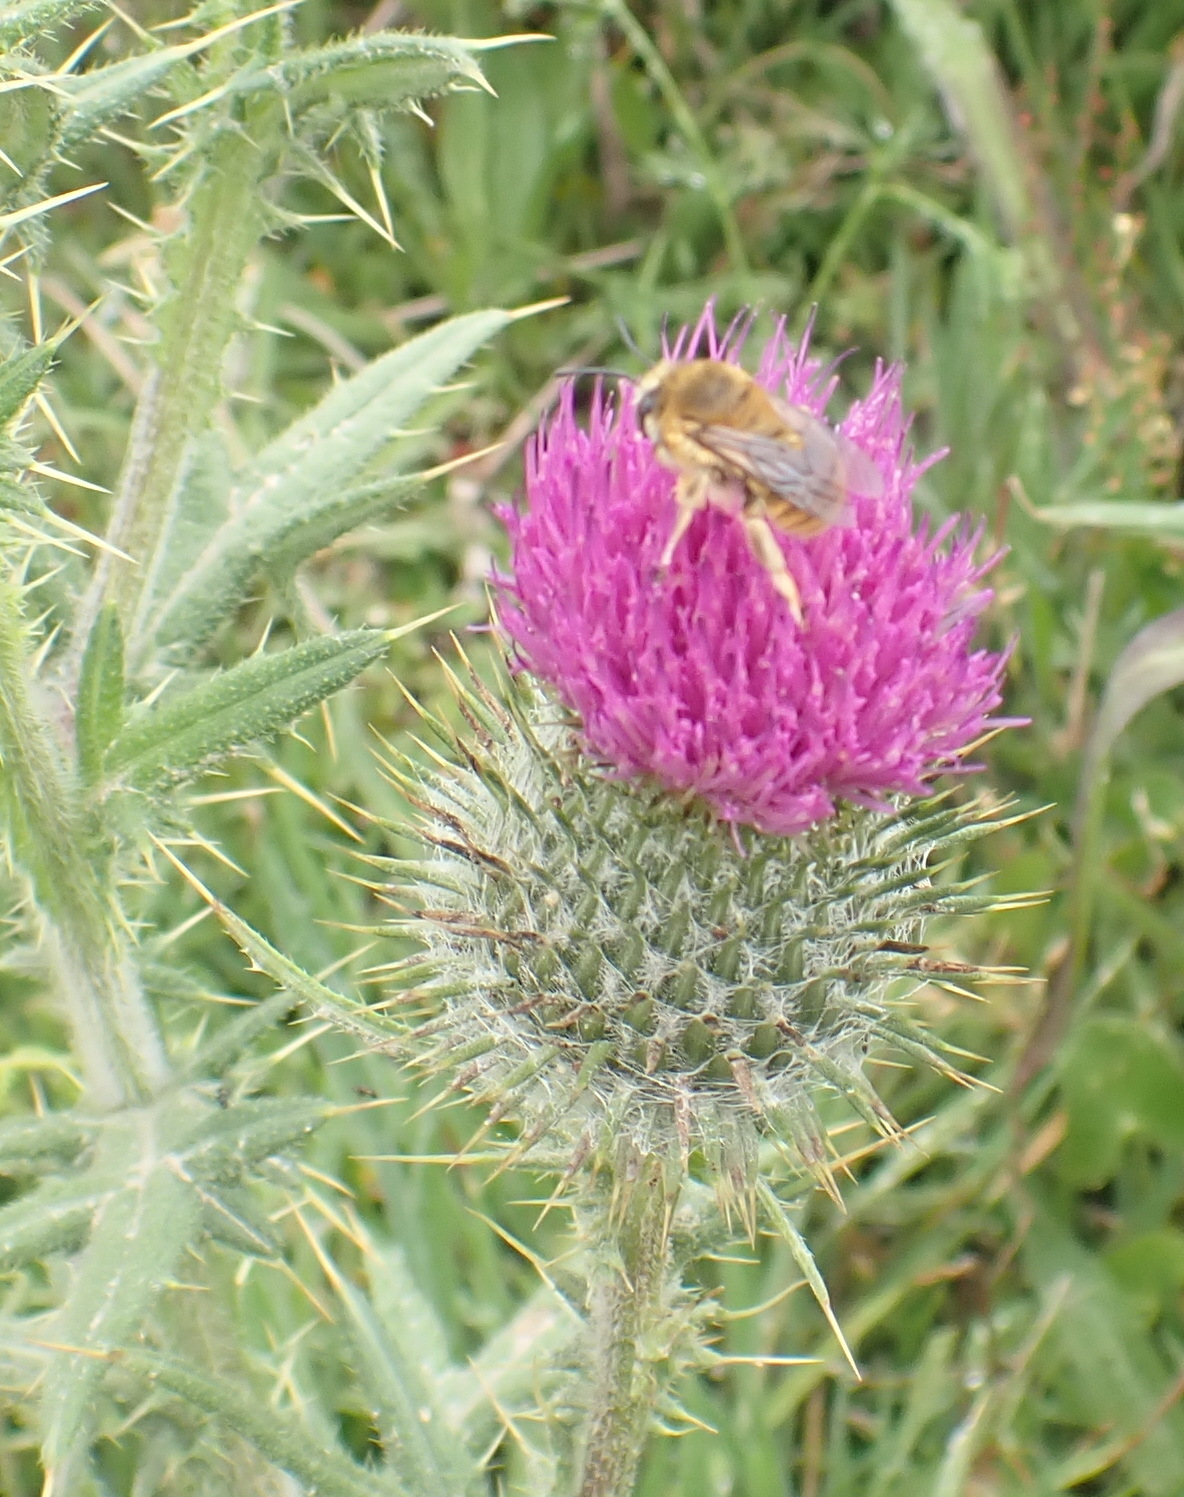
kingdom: Plantae
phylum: Tracheophyta
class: Magnoliopsida
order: Asterales
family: Asteraceae
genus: Cirsium
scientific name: Cirsium vulgare
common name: Bull thistle
